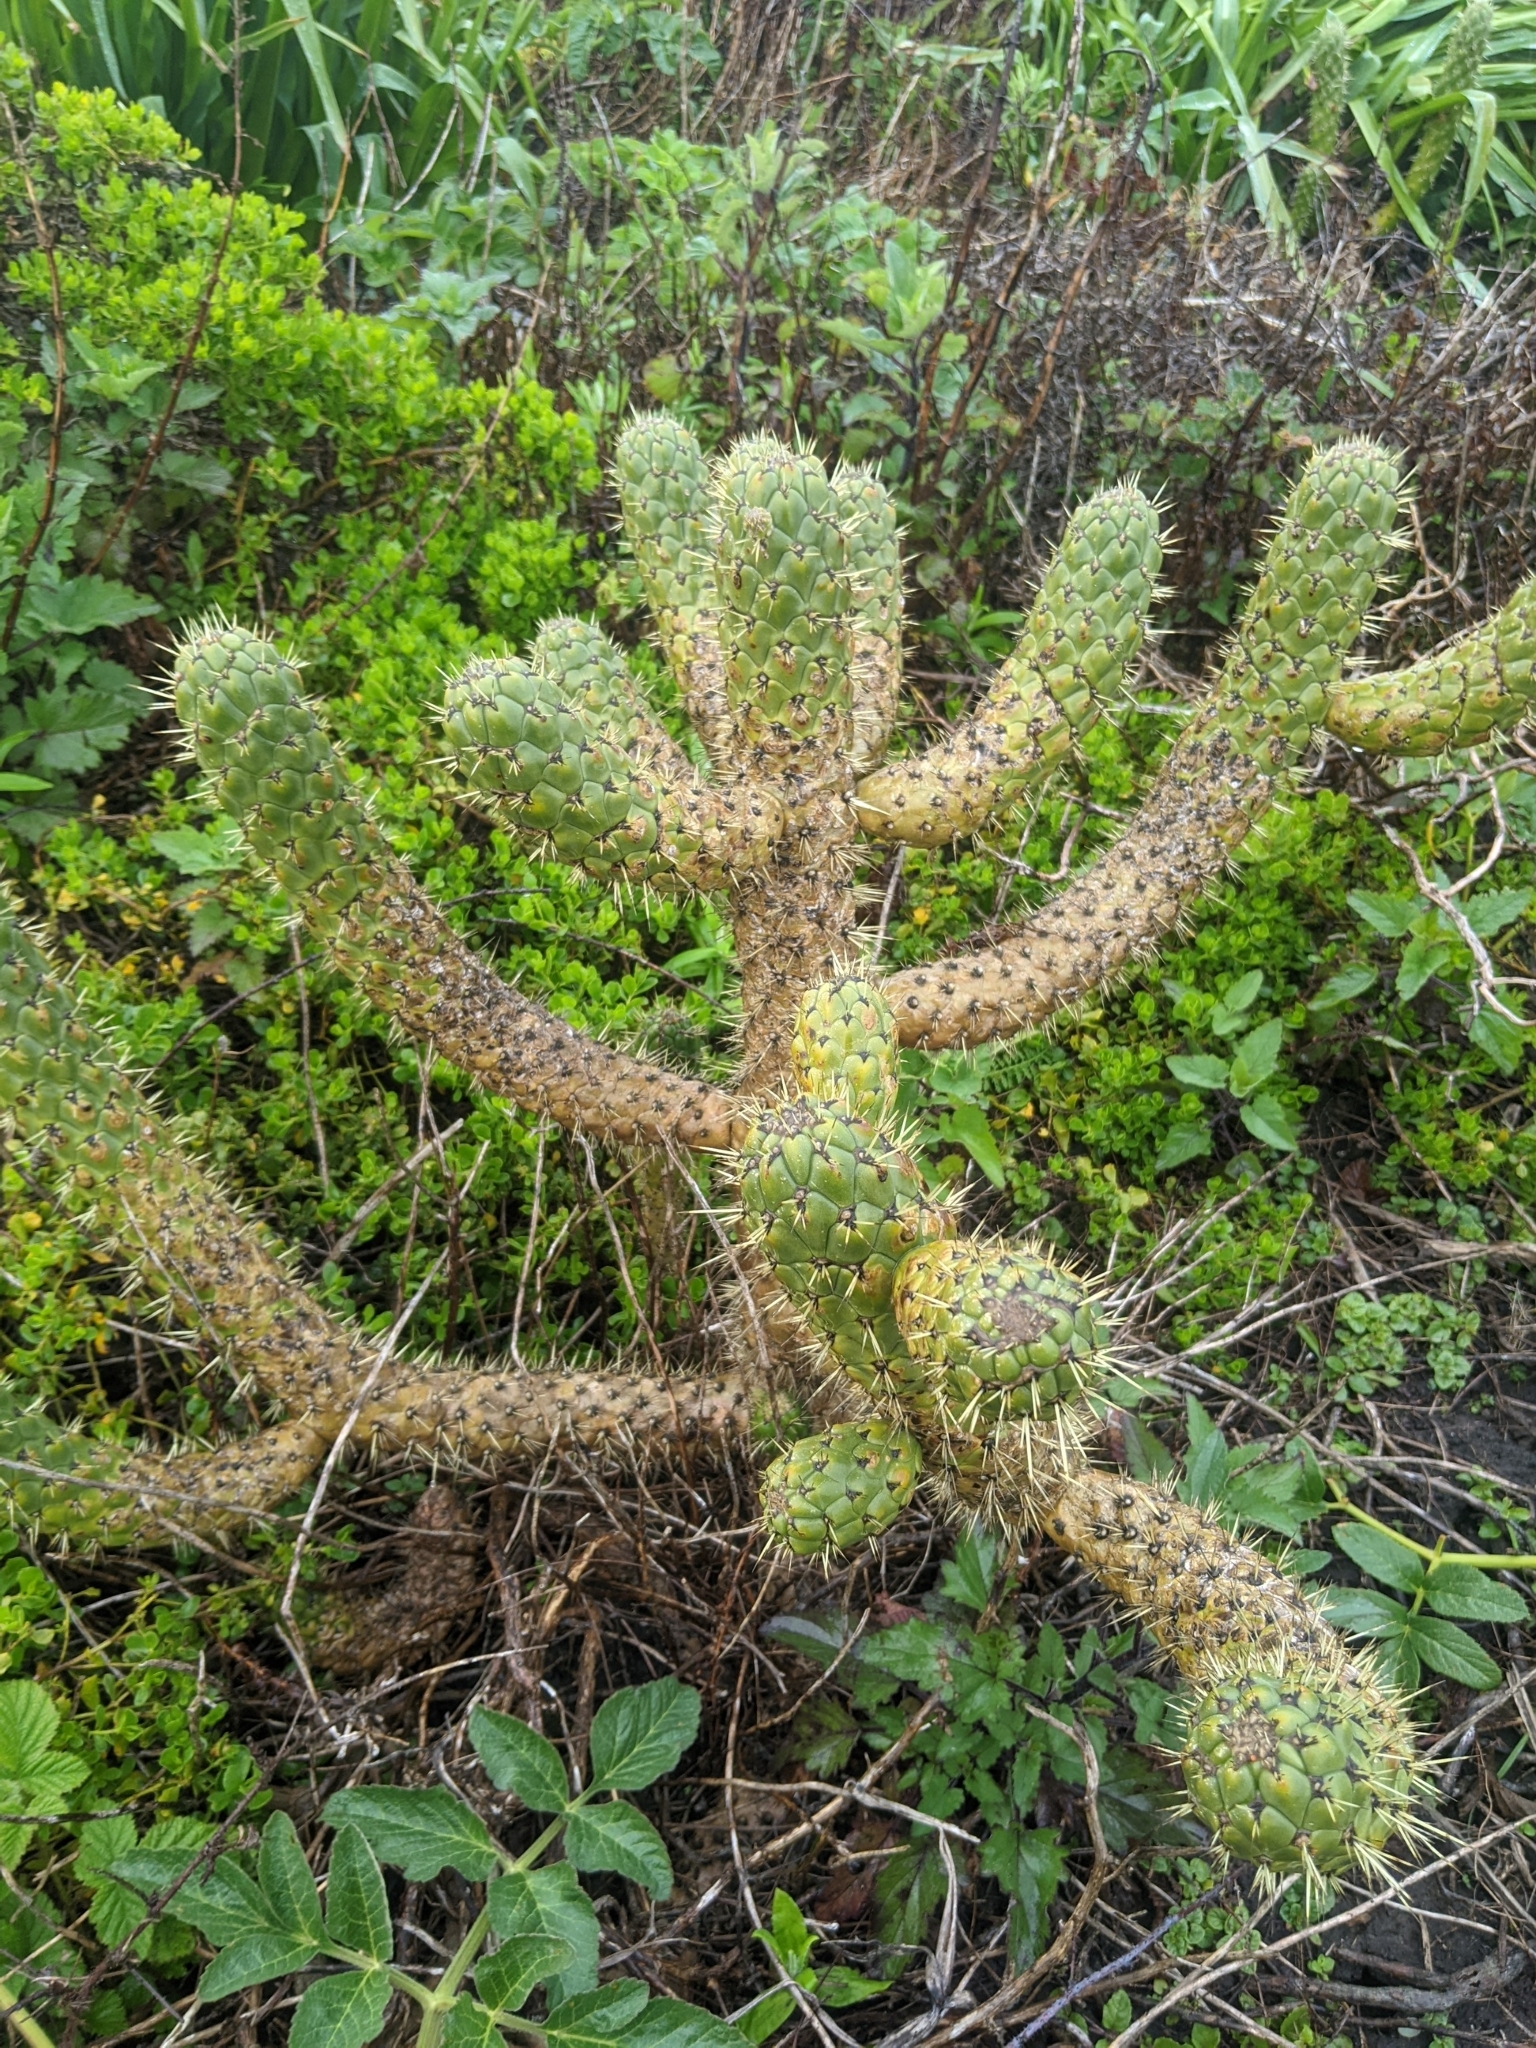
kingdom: Plantae
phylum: Tracheophyta
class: Magnoliopsida
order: Caryophyllales
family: Cactaceae
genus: Austrocylindropuntia
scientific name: Austrocylindropuntia cylindrica
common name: Cane cactus
